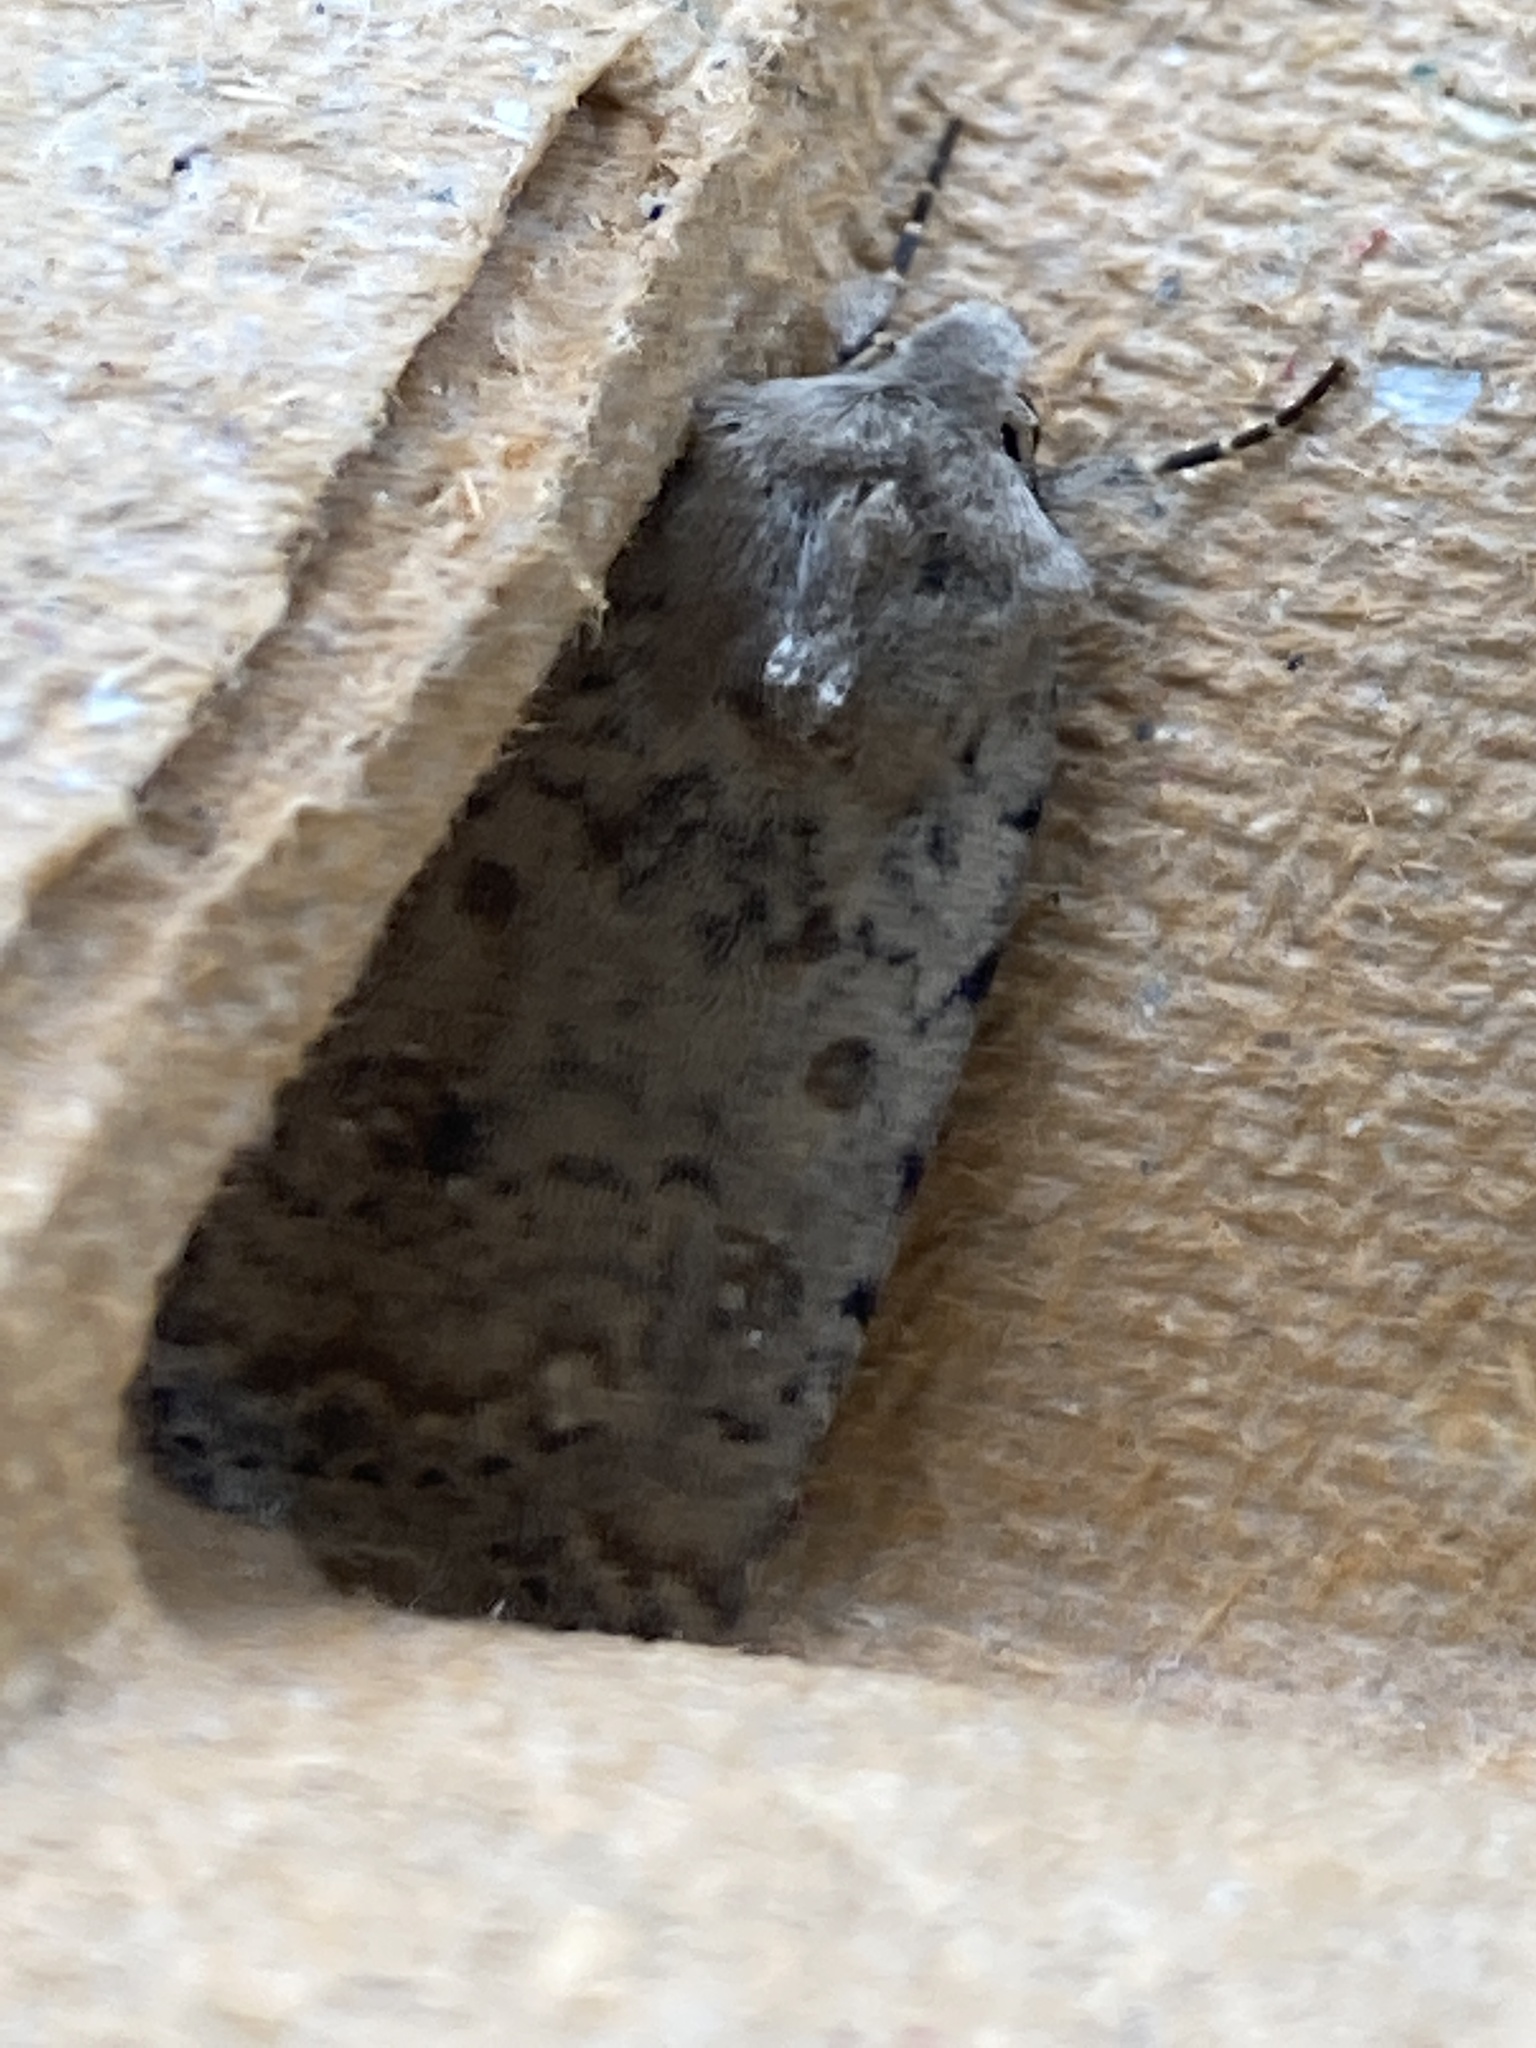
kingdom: Animalia
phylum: Arthropoda
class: Insecta
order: Lepidoptera
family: Noctuidae
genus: Caradrina
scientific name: Caradrina clavipalpis
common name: Pale mottled willow
